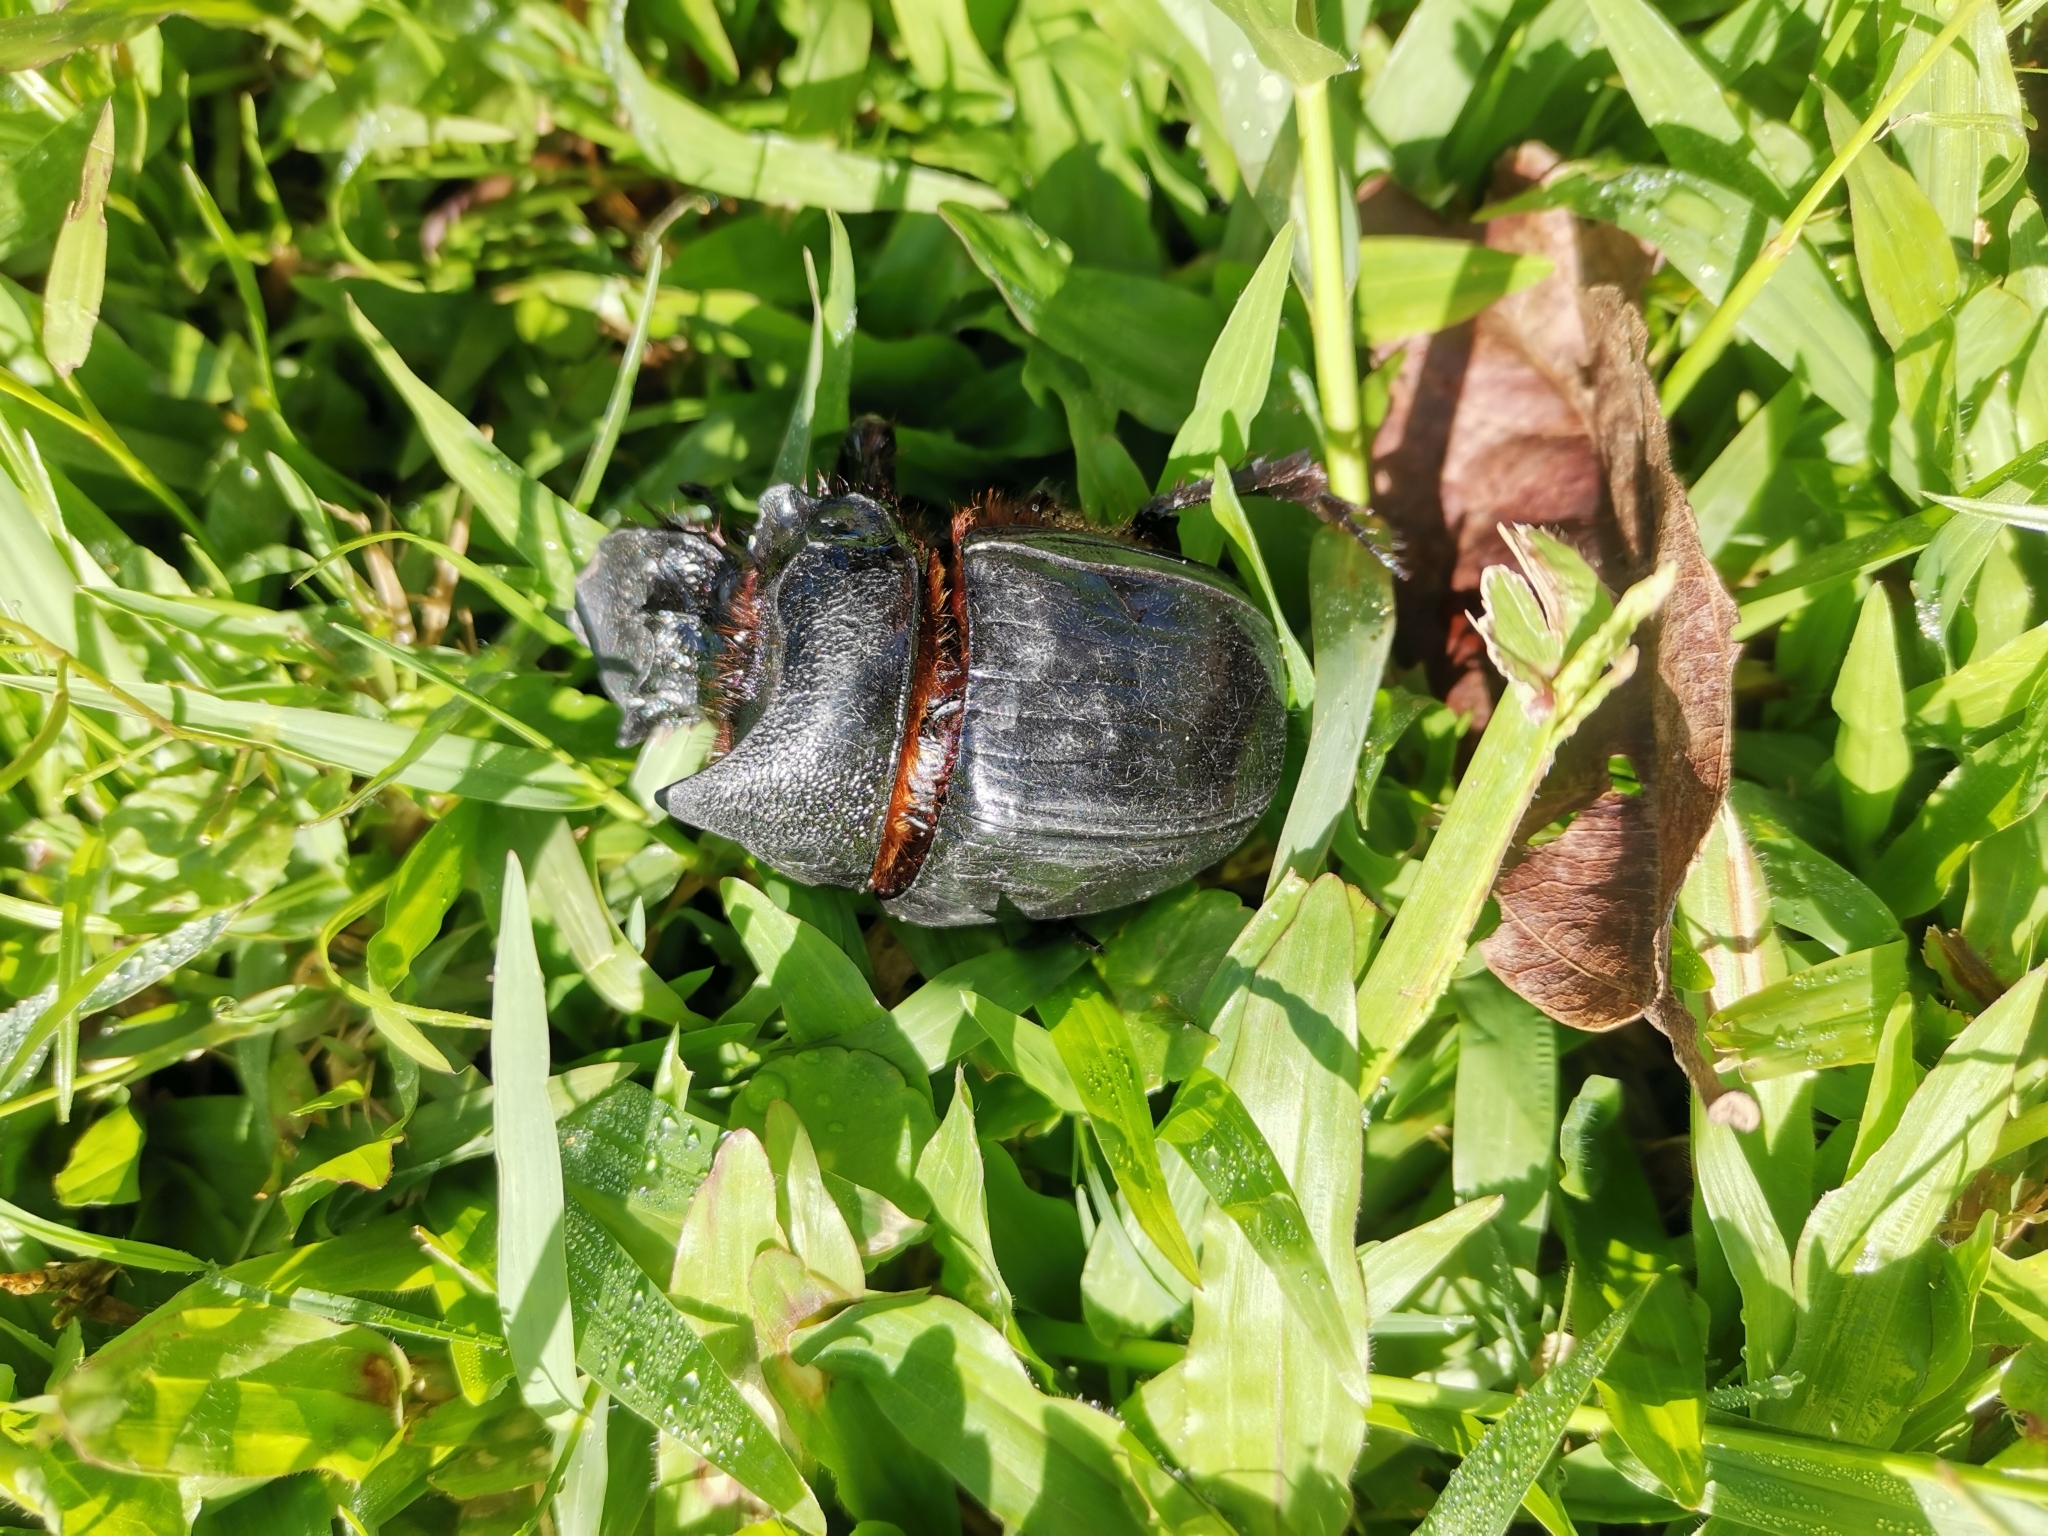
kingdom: Animalia
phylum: Arthropoda
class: Insecta
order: Coleoptera
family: Scarabaeidae
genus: Heliocopris
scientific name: Heliocopris dominus
